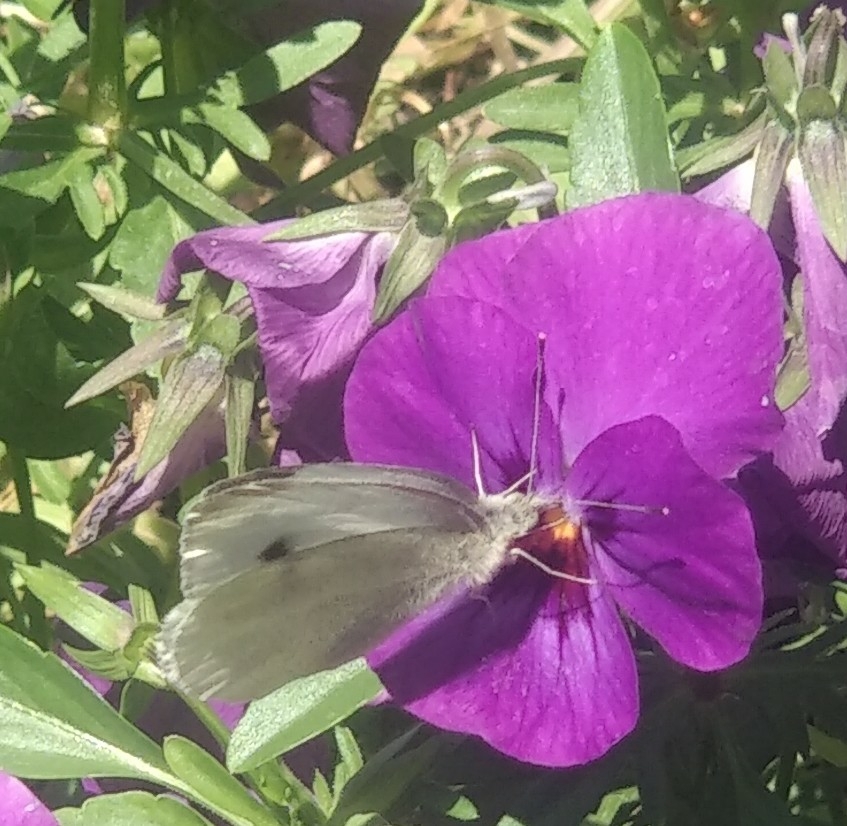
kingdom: Animalia
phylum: Arthropoda
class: Insecta
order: Lepidoptera
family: Pieridae
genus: Pieris
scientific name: Pieris rapae
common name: Small white
